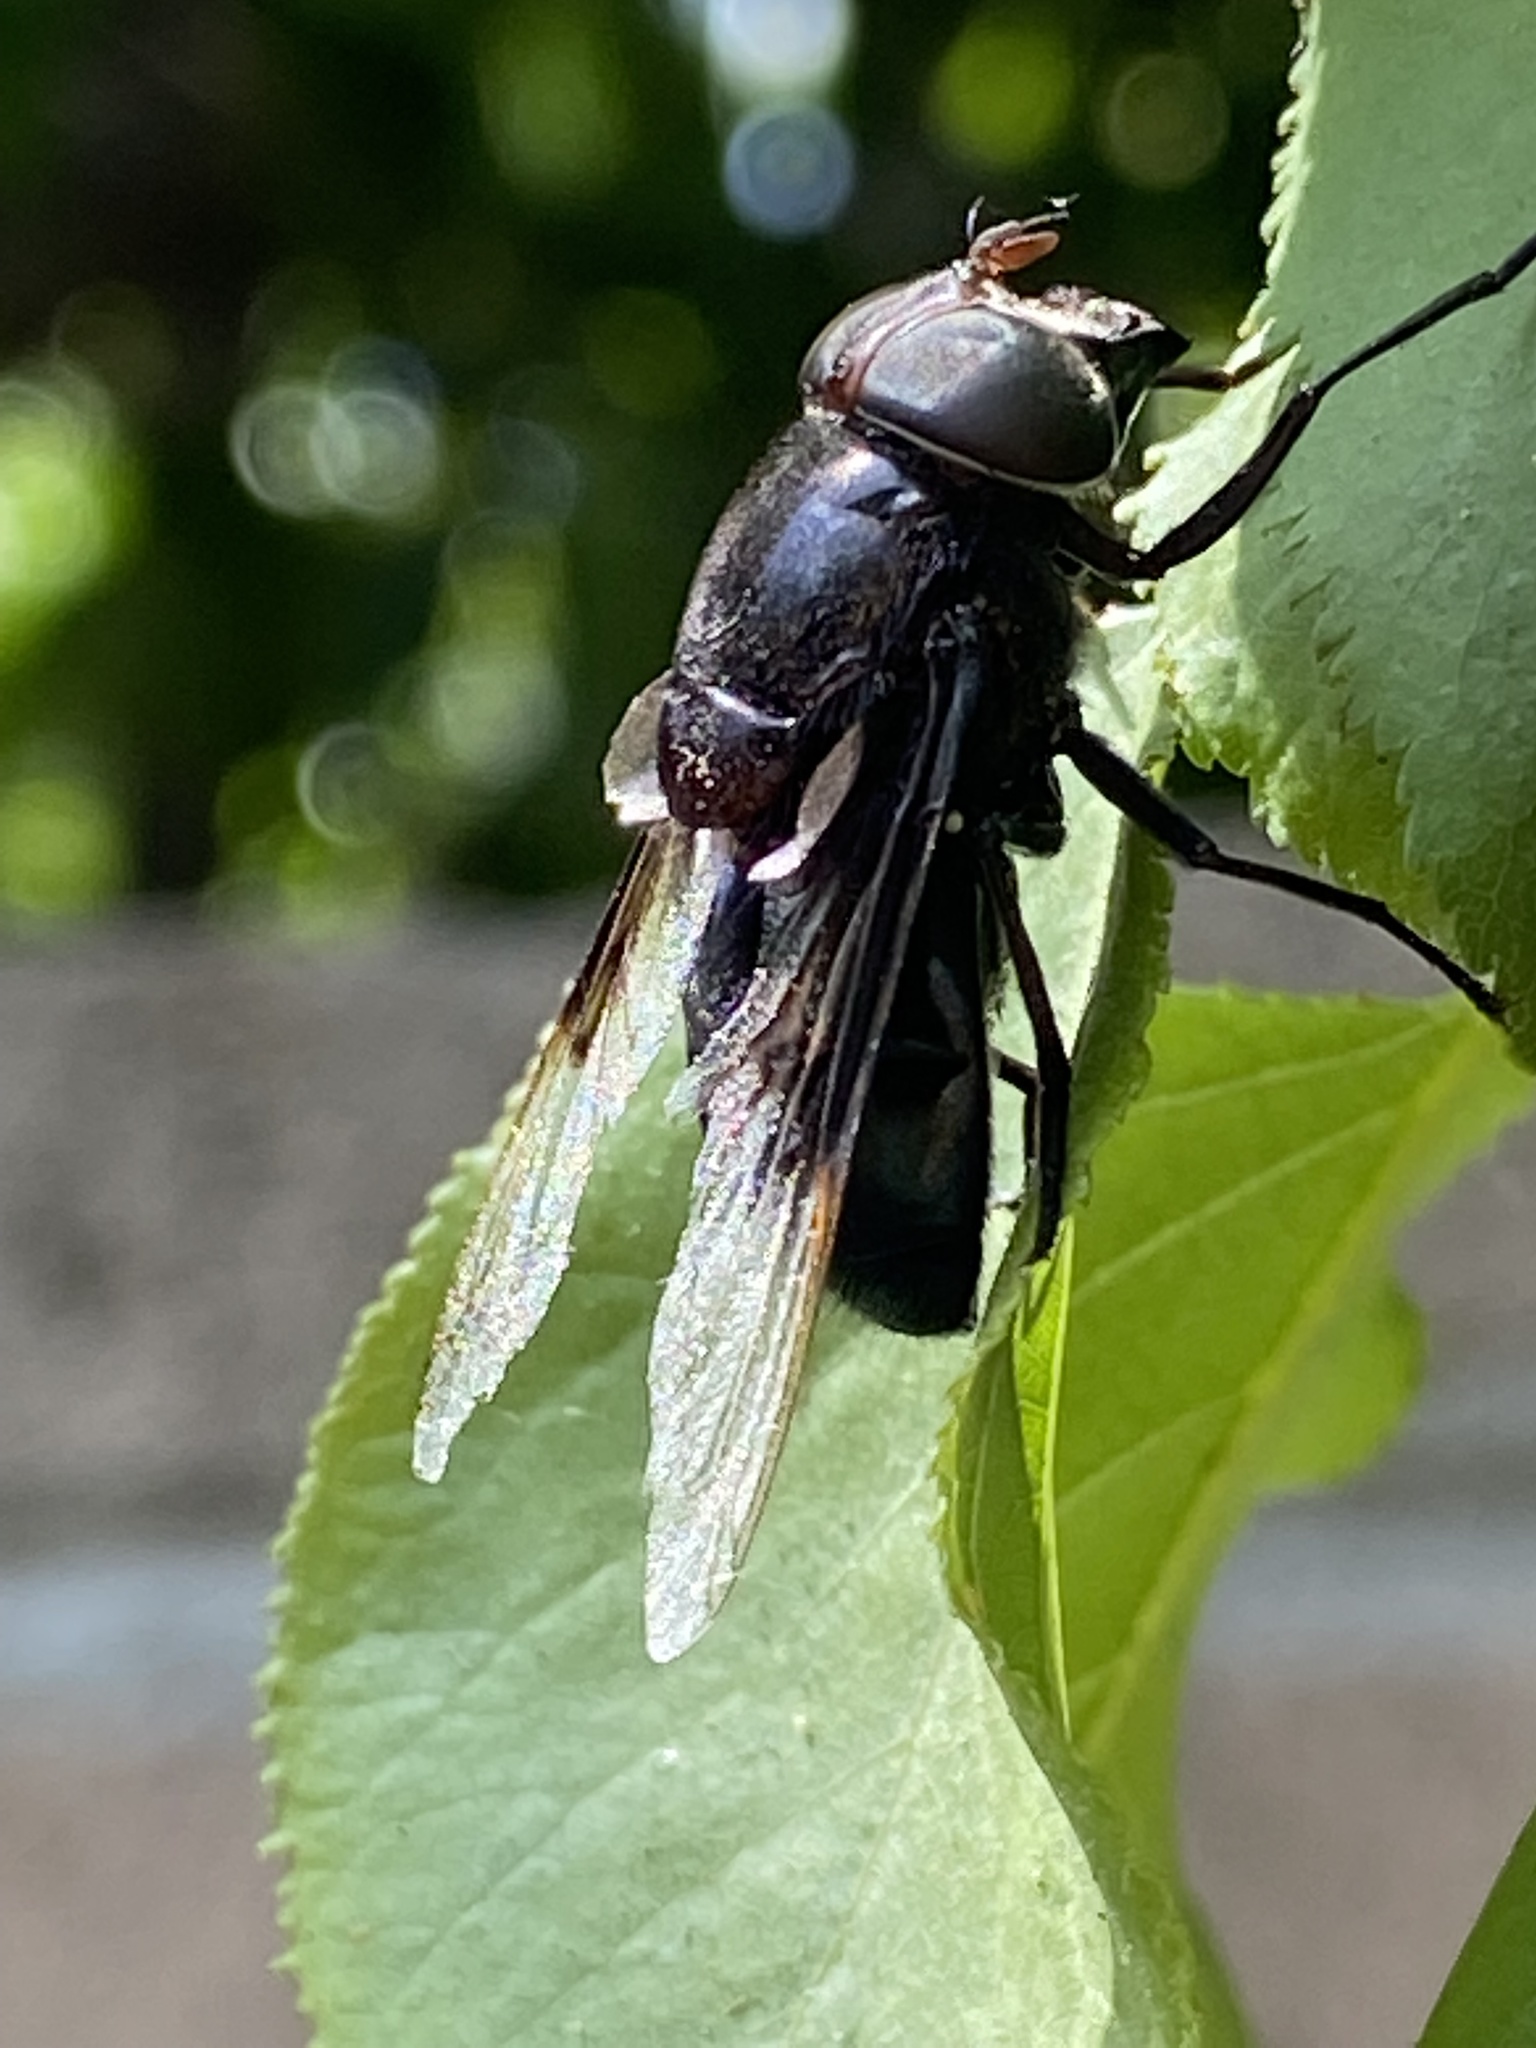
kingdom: Animalia
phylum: Arthropoda
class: Insecta
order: Diptera
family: Syrphidae
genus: Copestylum
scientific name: Copestylum
